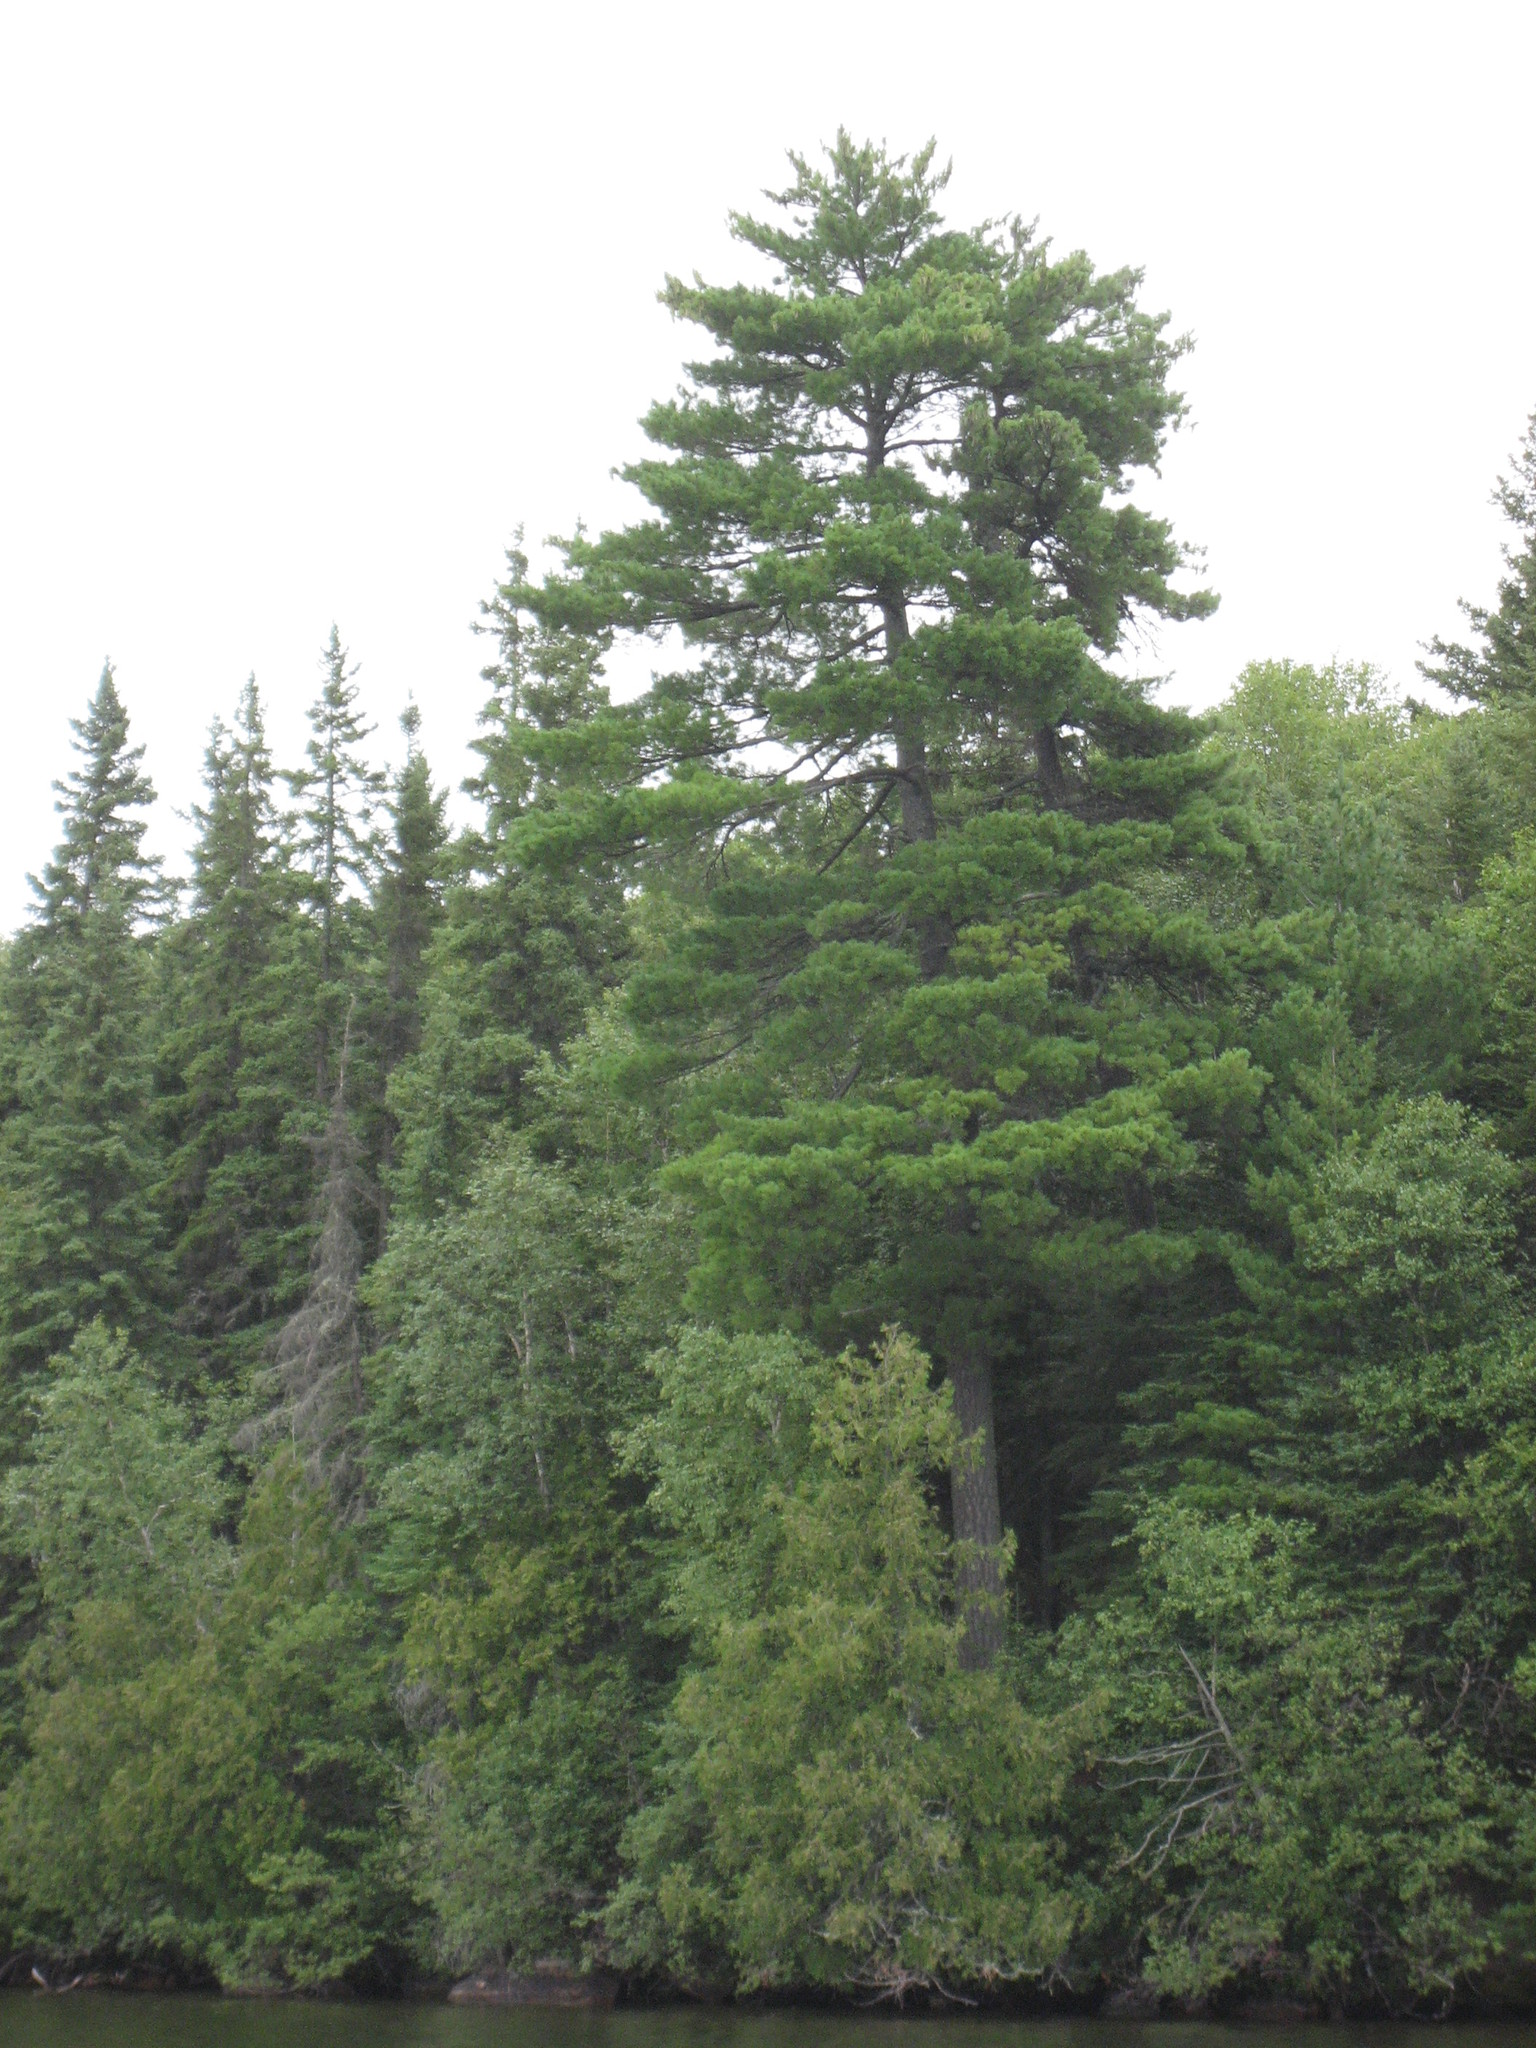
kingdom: Plantae
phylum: Tracheophyta
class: Pinopsida
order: Pinales
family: Pinaceae
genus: Pinus
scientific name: Pinus strobus
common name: Weymouth pine
